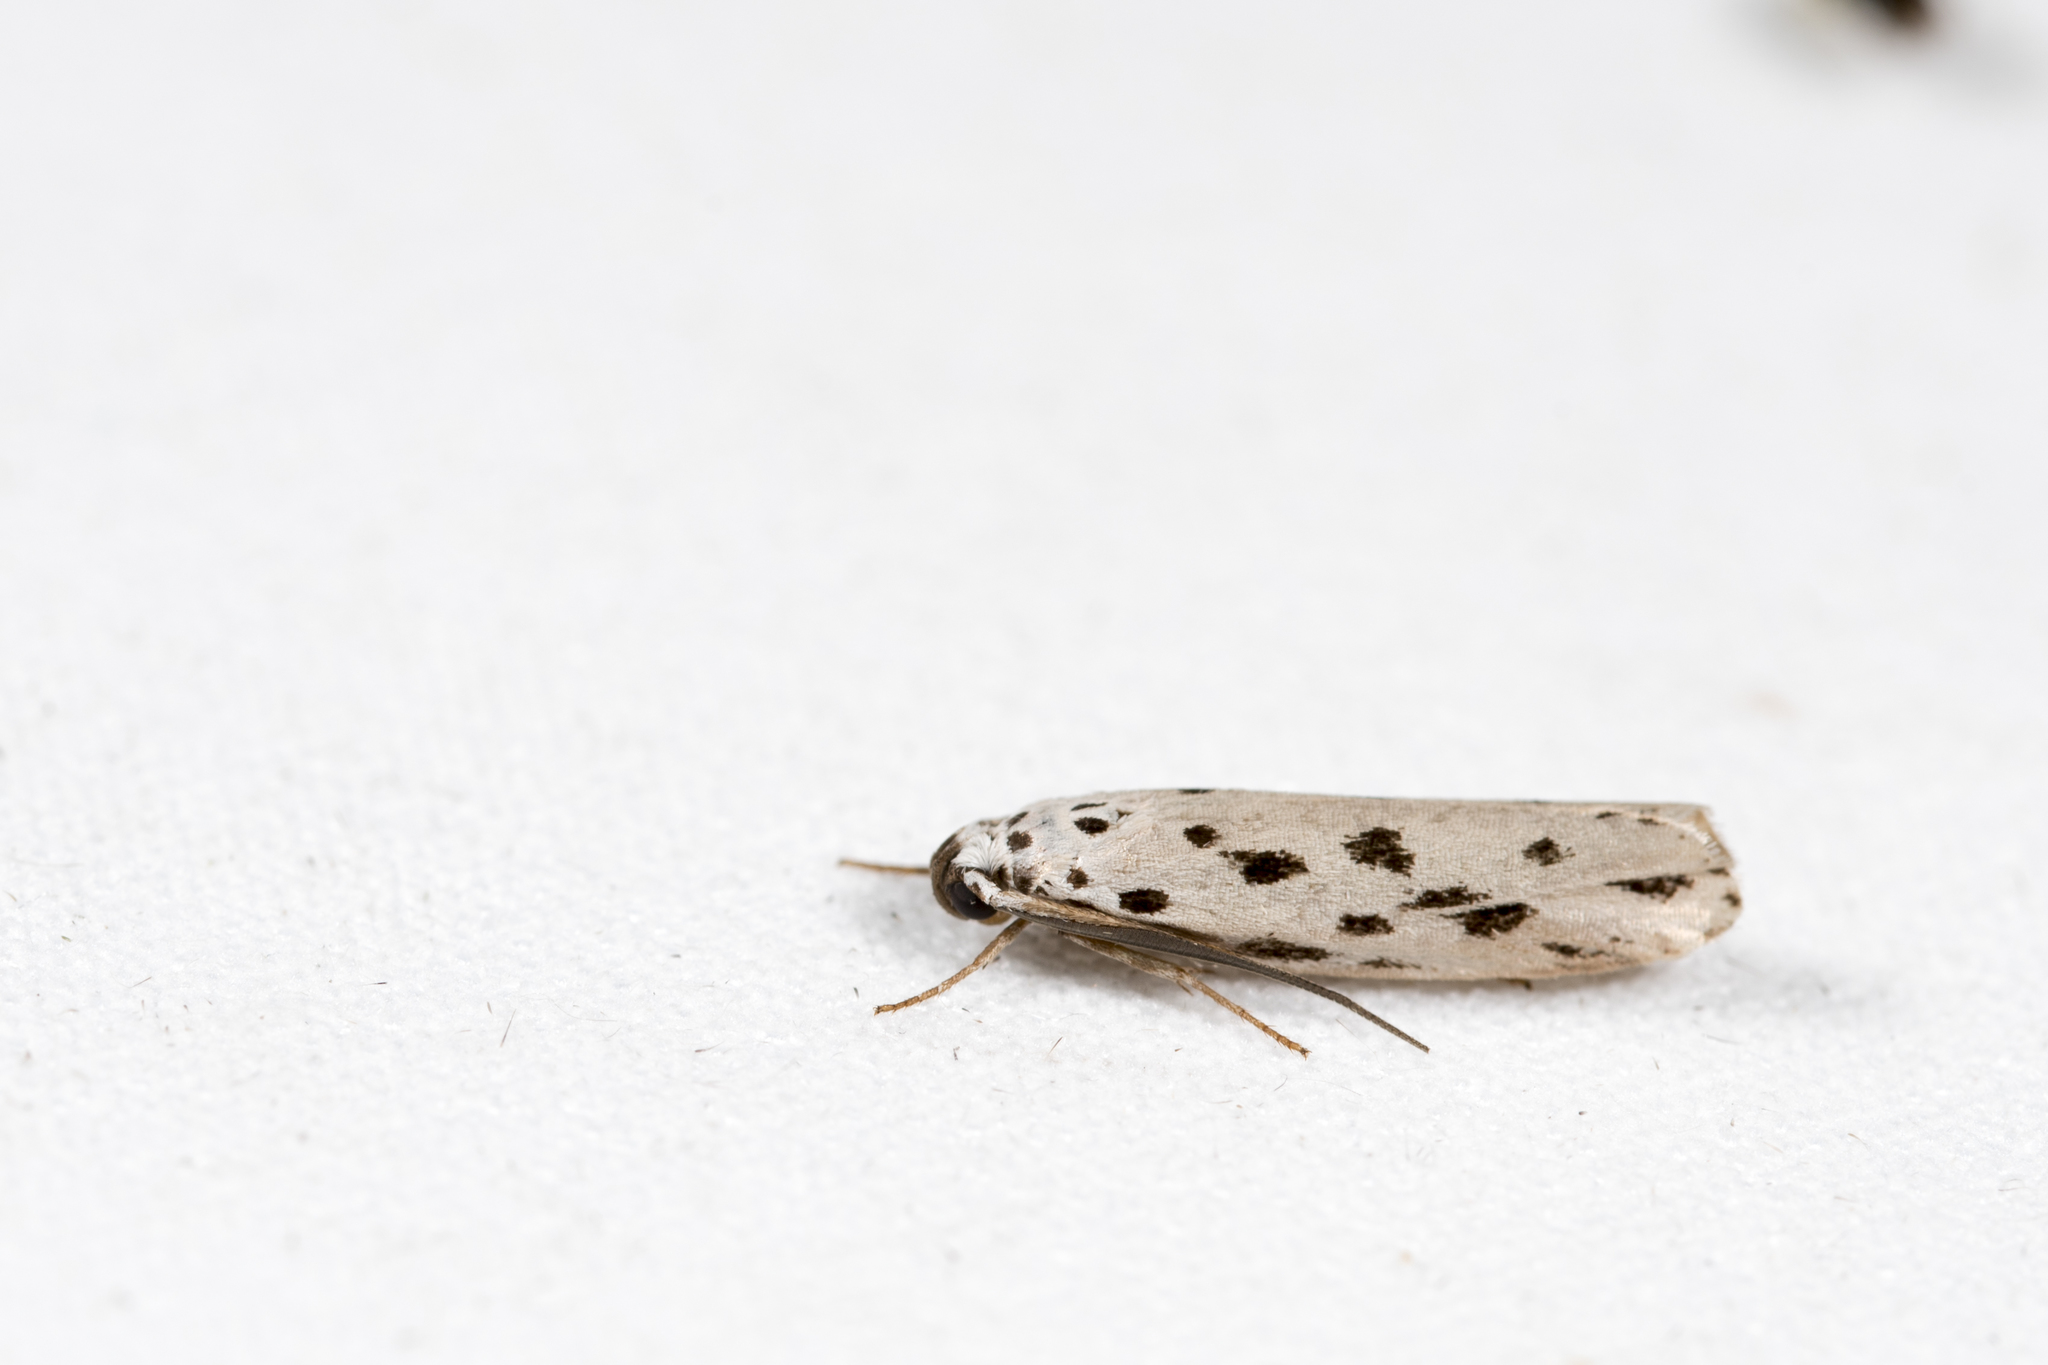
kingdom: Animalia
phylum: Arthropoda
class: Insecta
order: Lepidoptera
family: Ethmiidae
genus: Ethmia
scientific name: Ethmia epitrocha
